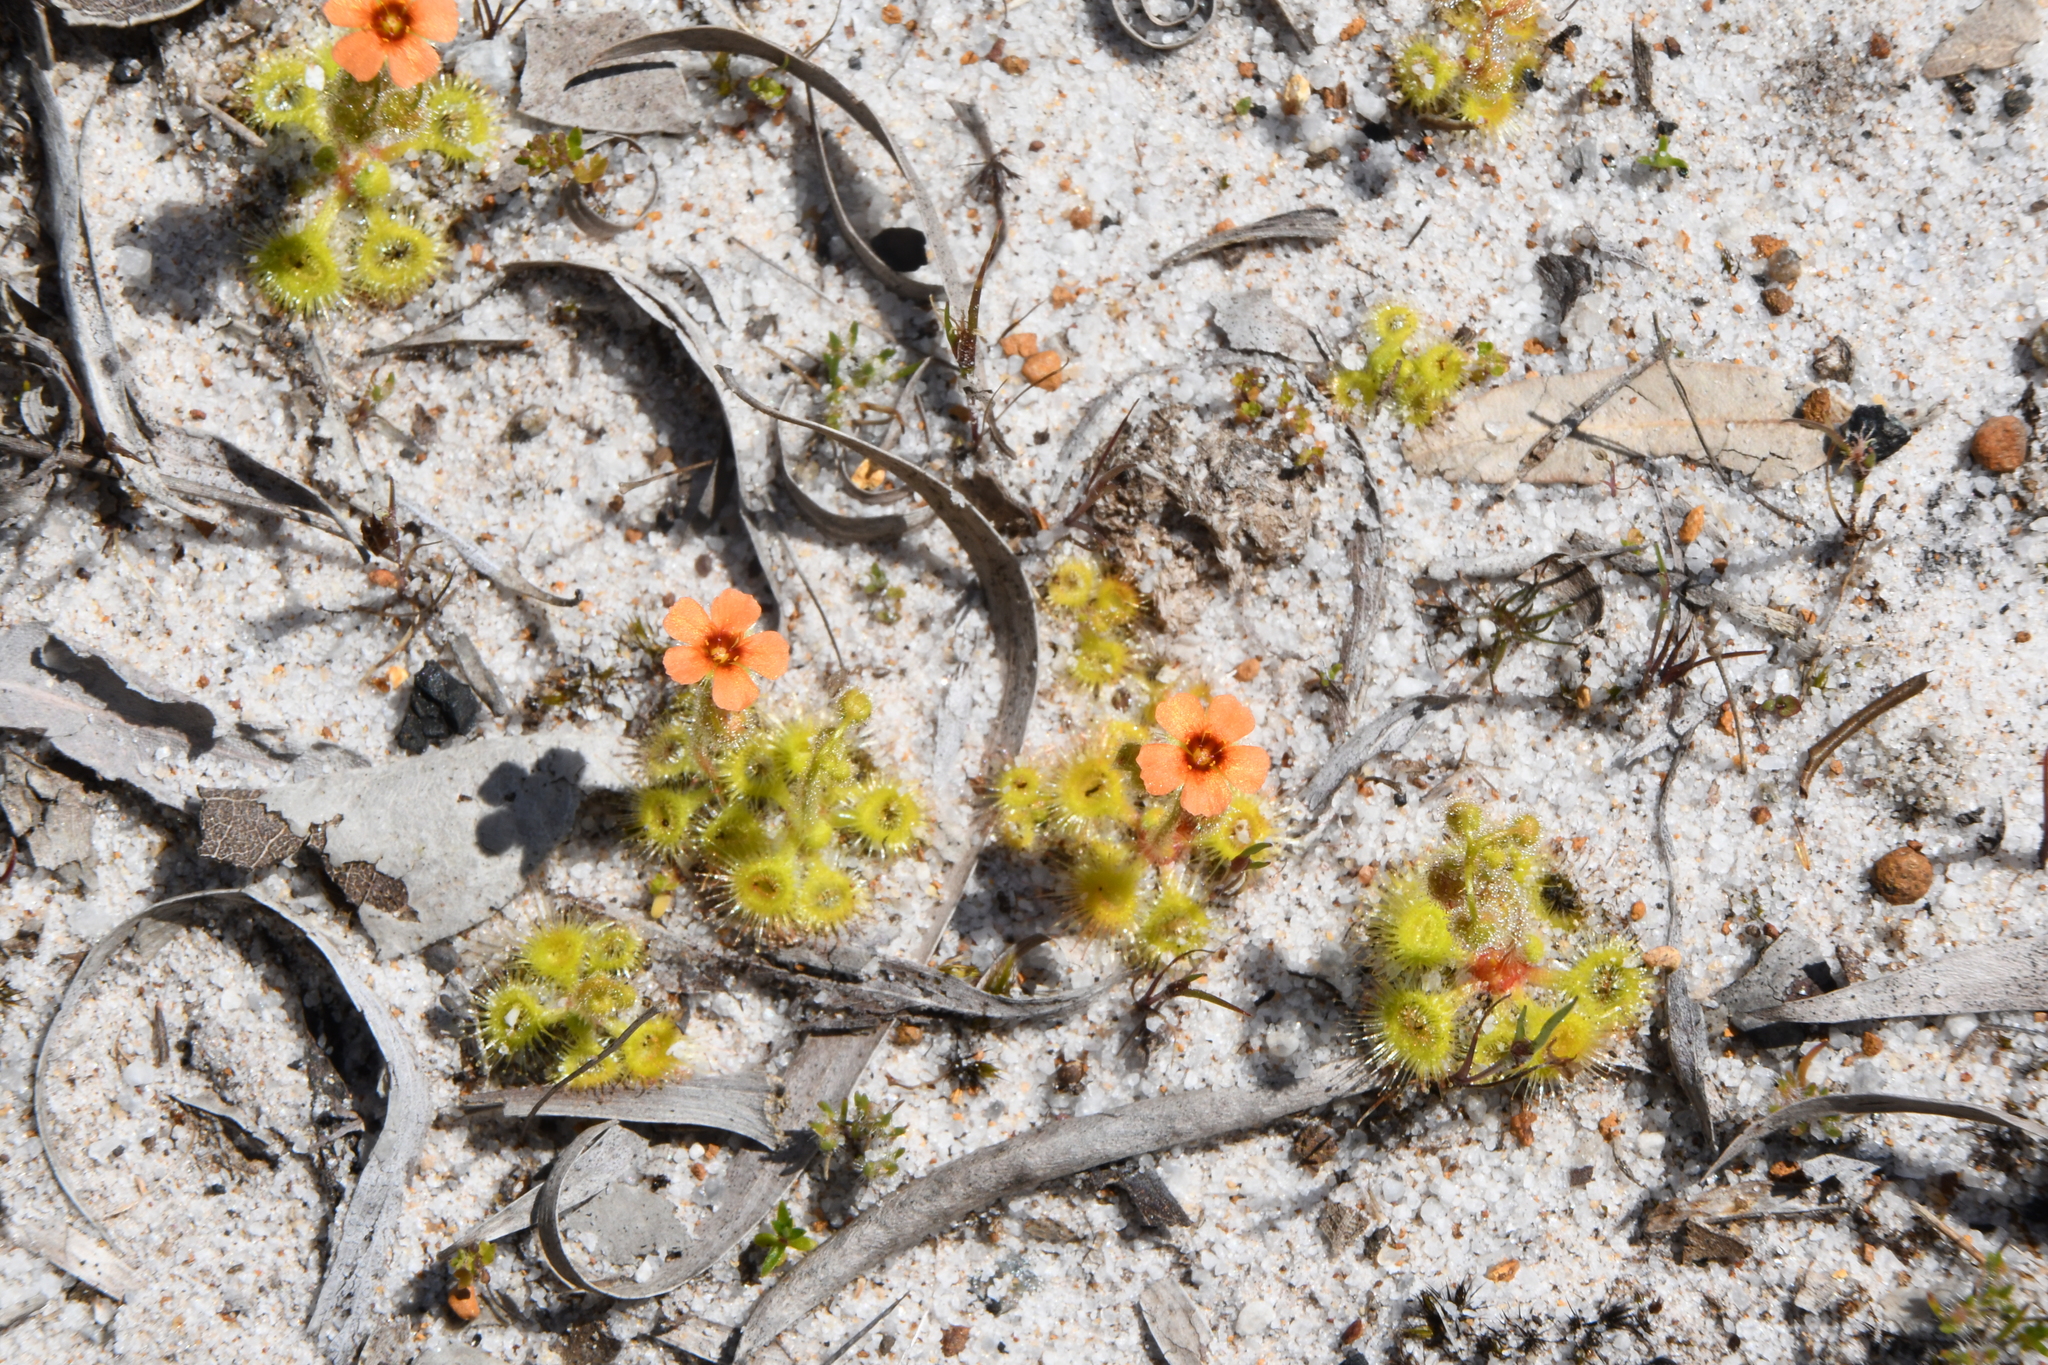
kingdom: Plantae
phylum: Tracheophyta
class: Magnoliopsida
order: Caryophyllales
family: Droseraceae
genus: Drosera
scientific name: Drosera glanduligera
